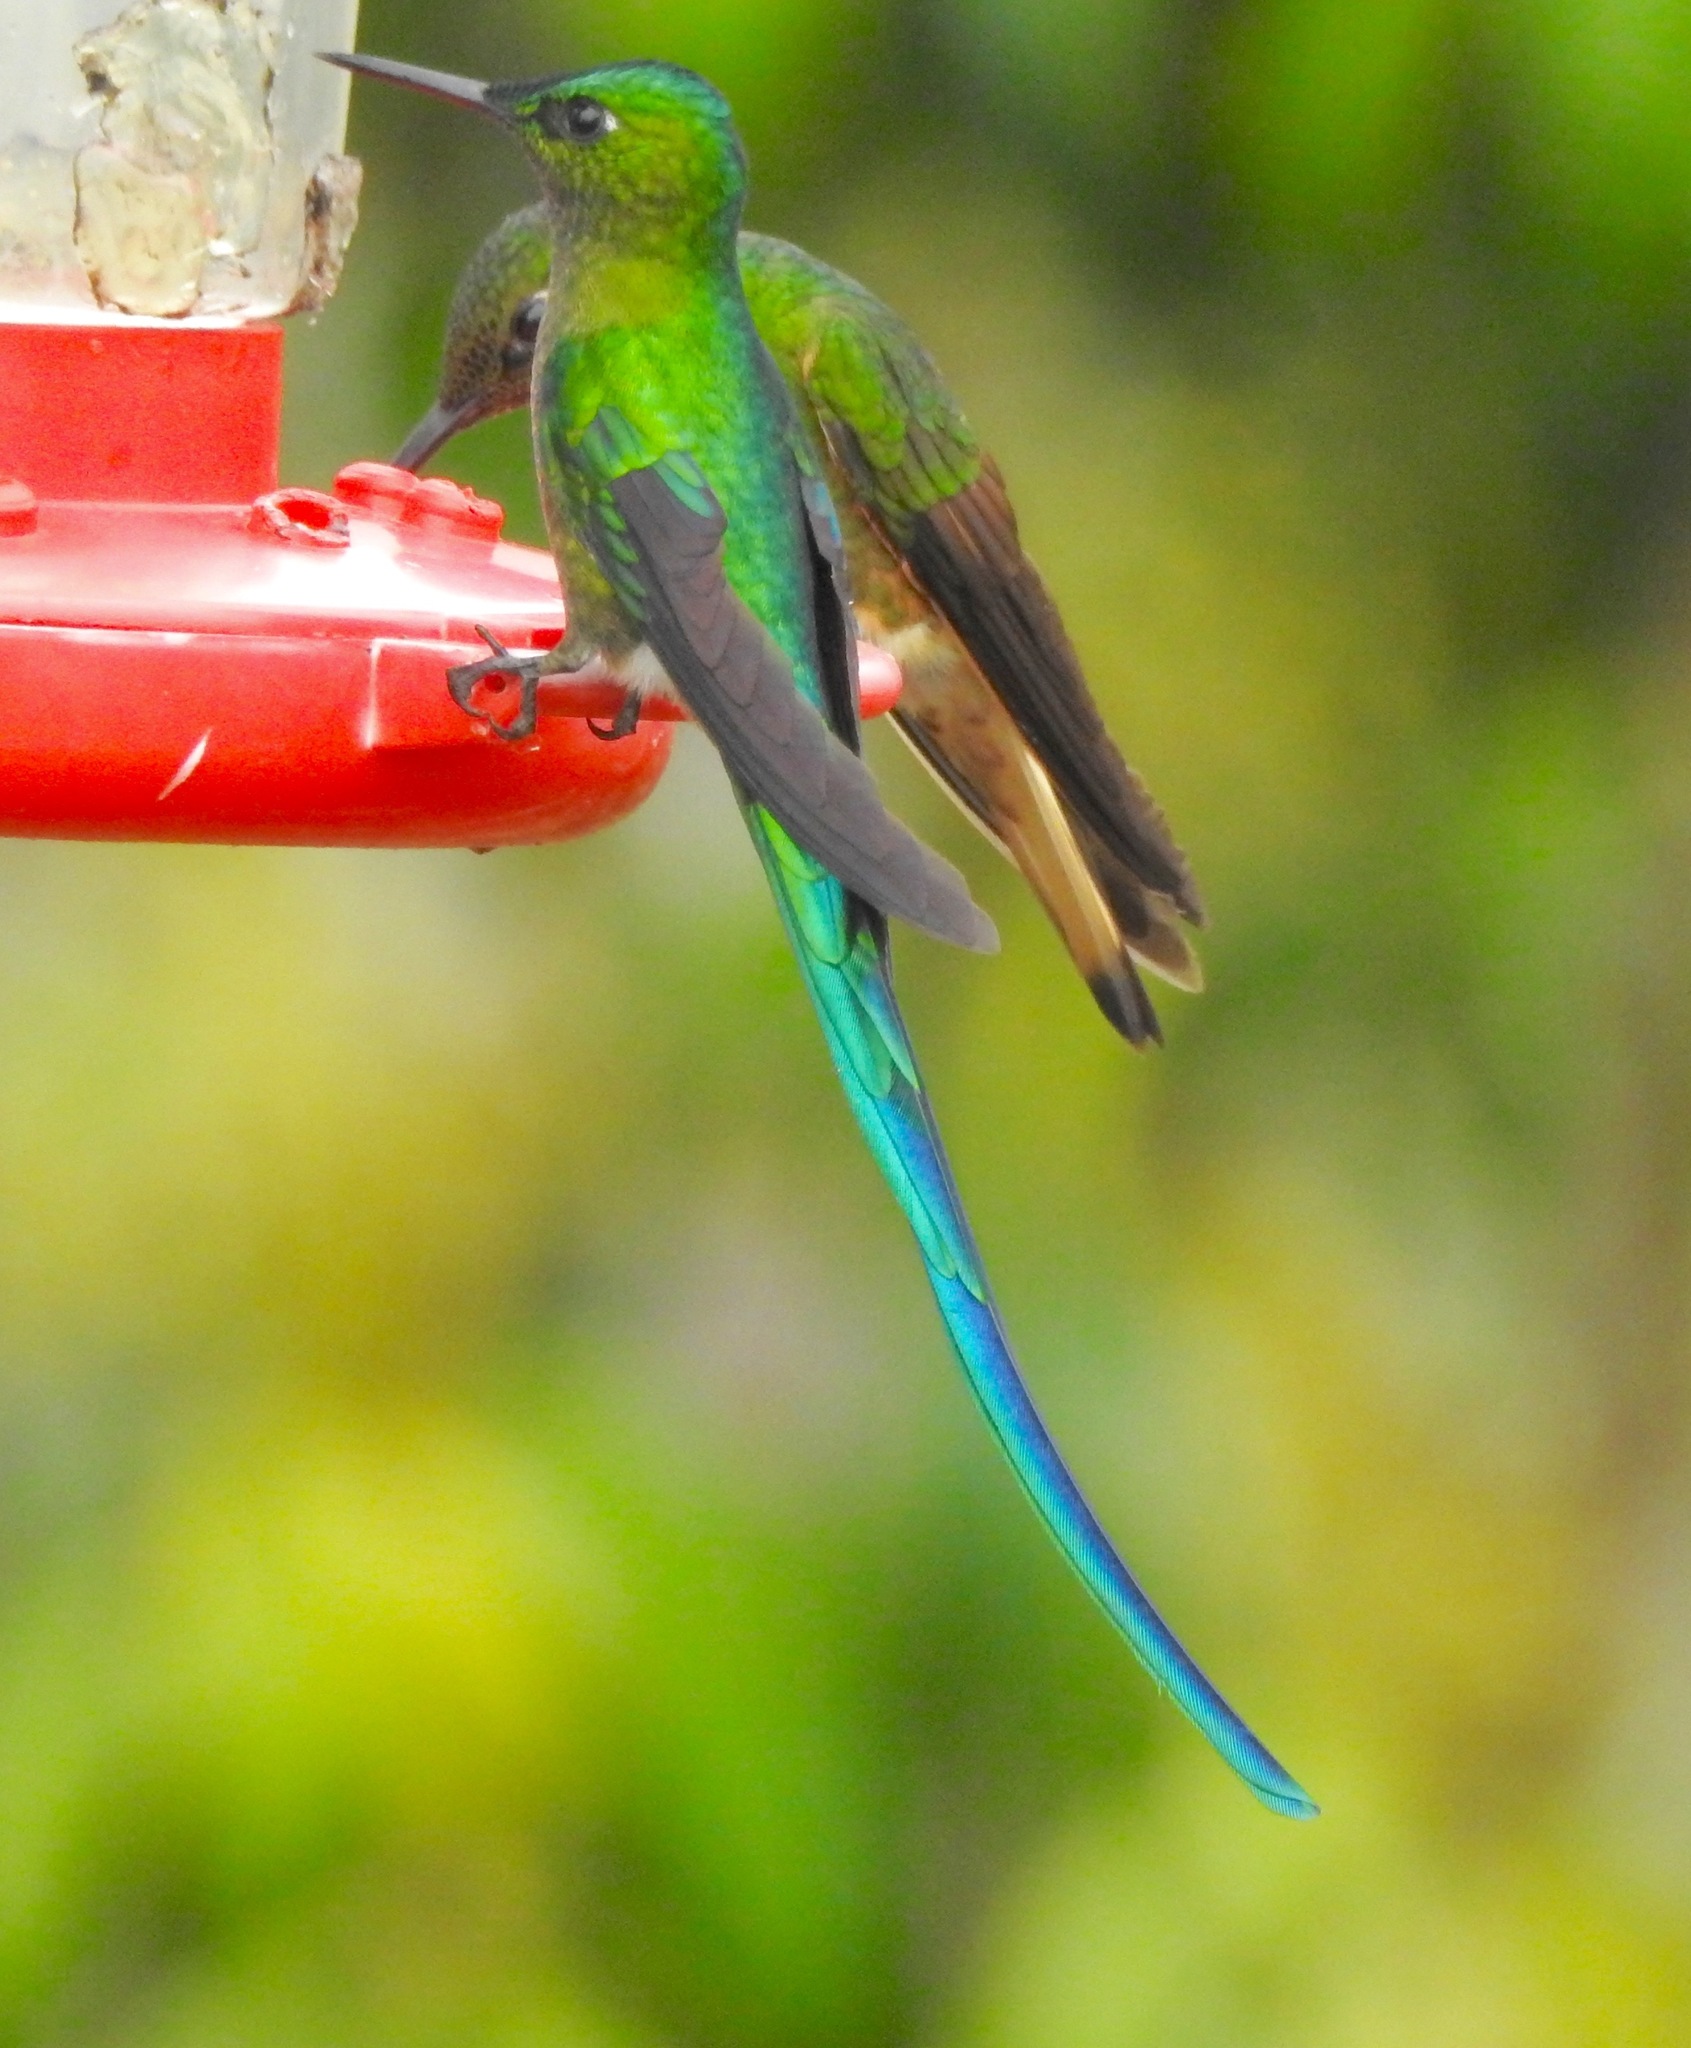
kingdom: Animalia
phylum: Chordata
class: Aves
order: Apodiformes
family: Trochilidae
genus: Aglaiocercus
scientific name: Aglaiocercus kingii
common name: Long-tailed sylph
